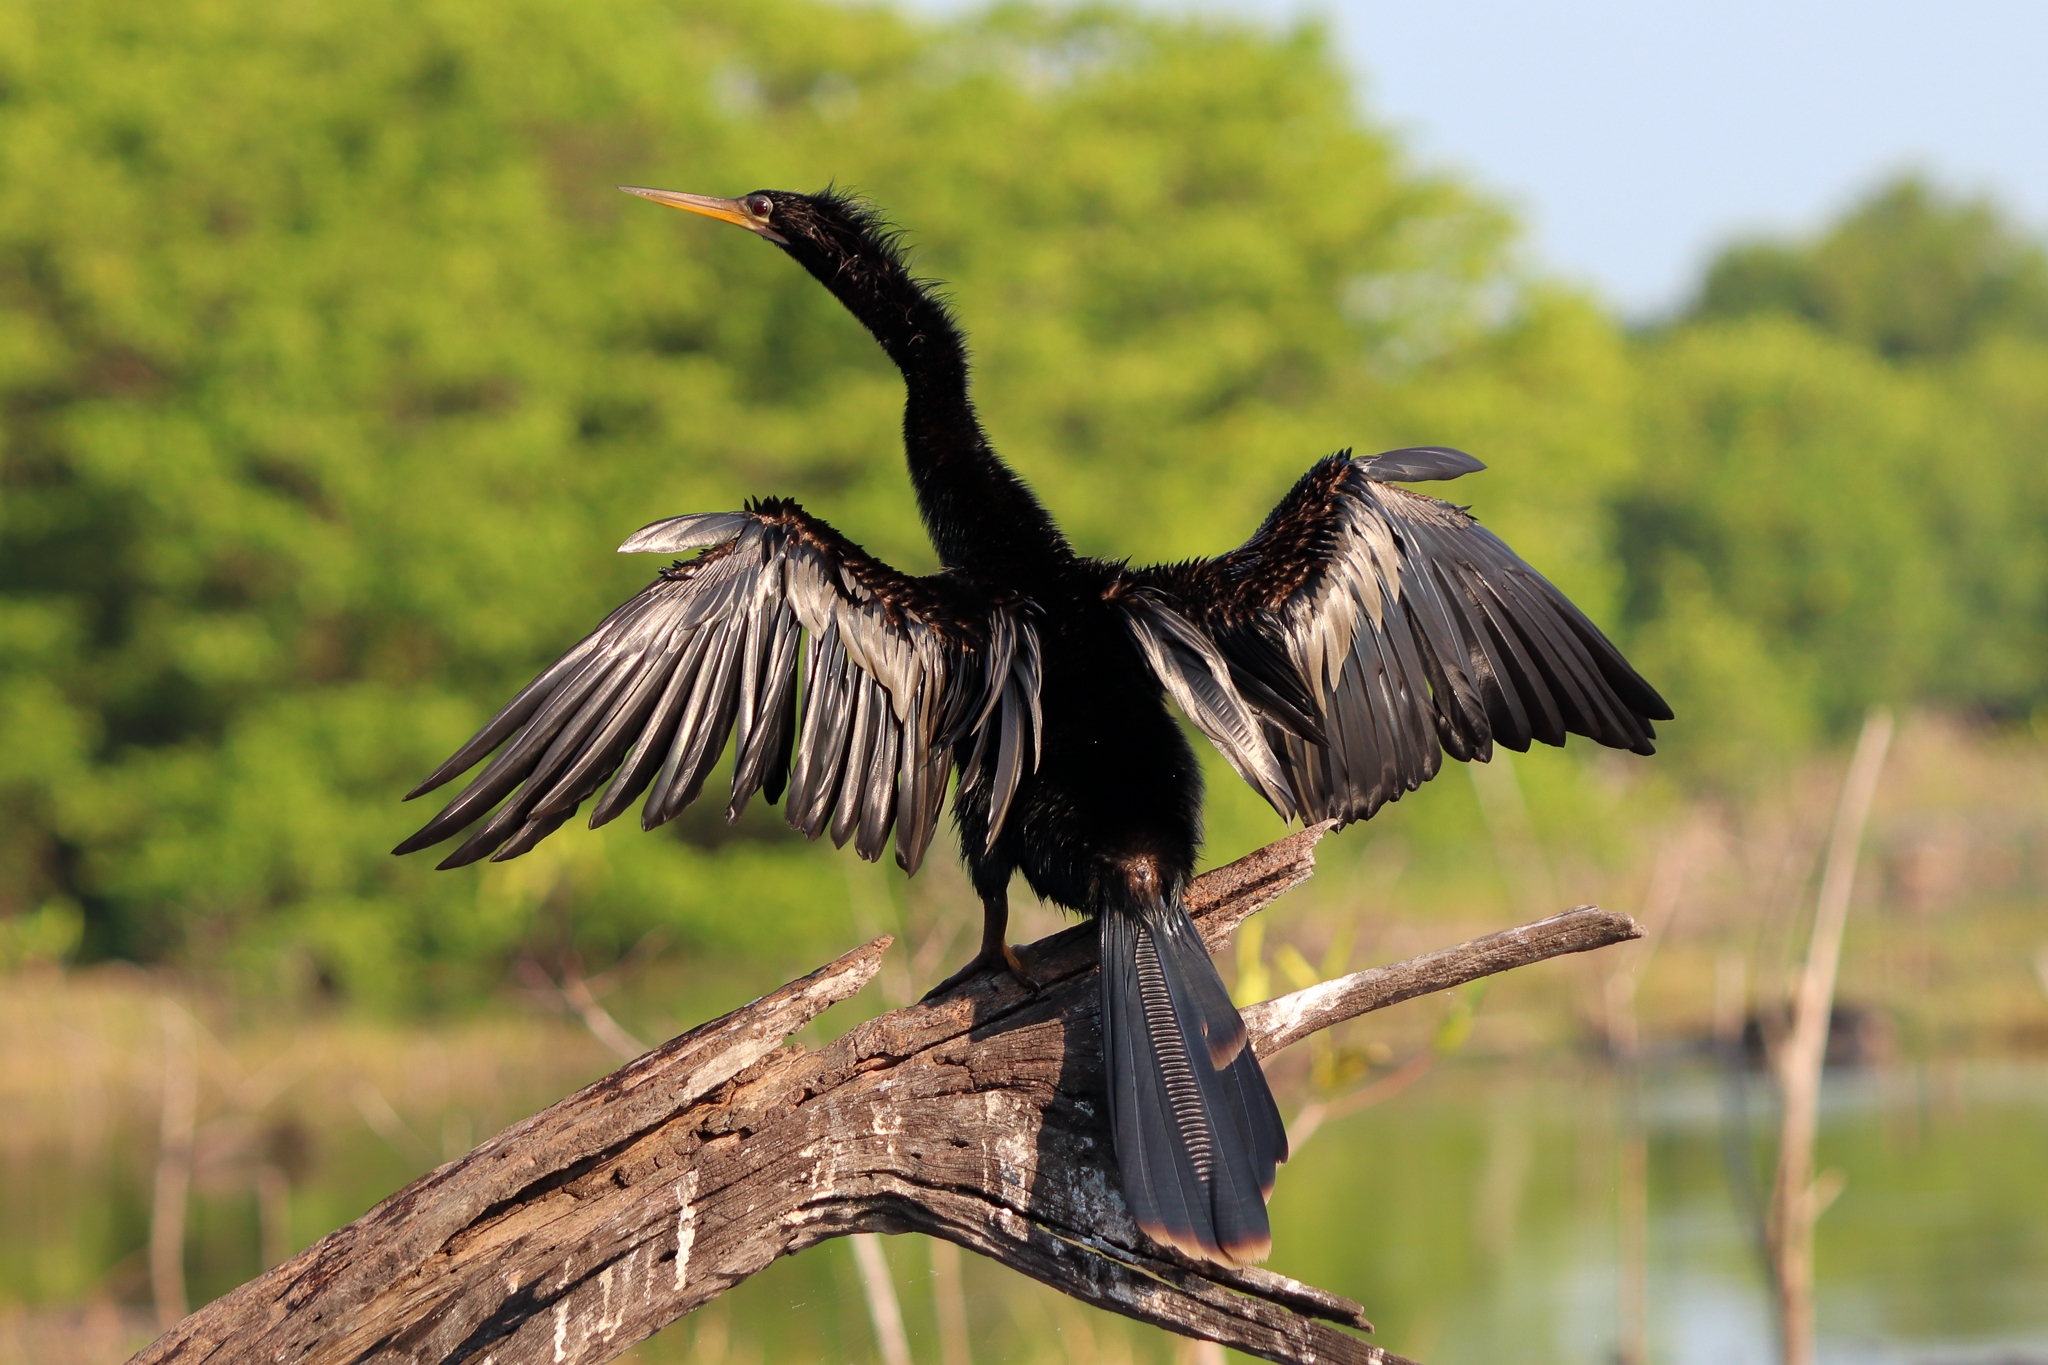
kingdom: Animalia
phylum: Chordata
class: Aves
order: Suliformes
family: Anhingidae
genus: Anhinga
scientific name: Anhinga anhinga
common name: Anhinga
